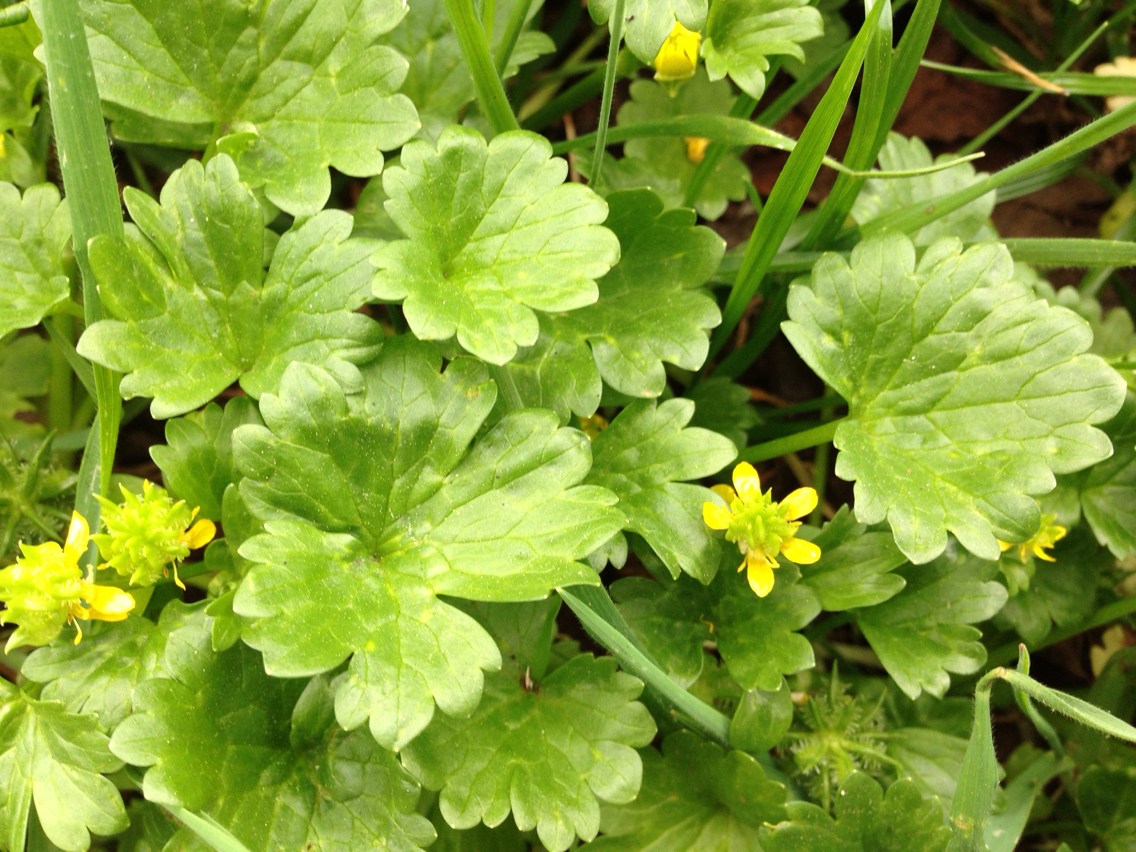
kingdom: Plantae
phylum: Tracheophyta
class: Magnoliopsida
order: Ranunculales
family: Ranunculaceae
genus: Ranunculus
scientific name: Ranunculus muricatus
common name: Rough-fruited buttercup
